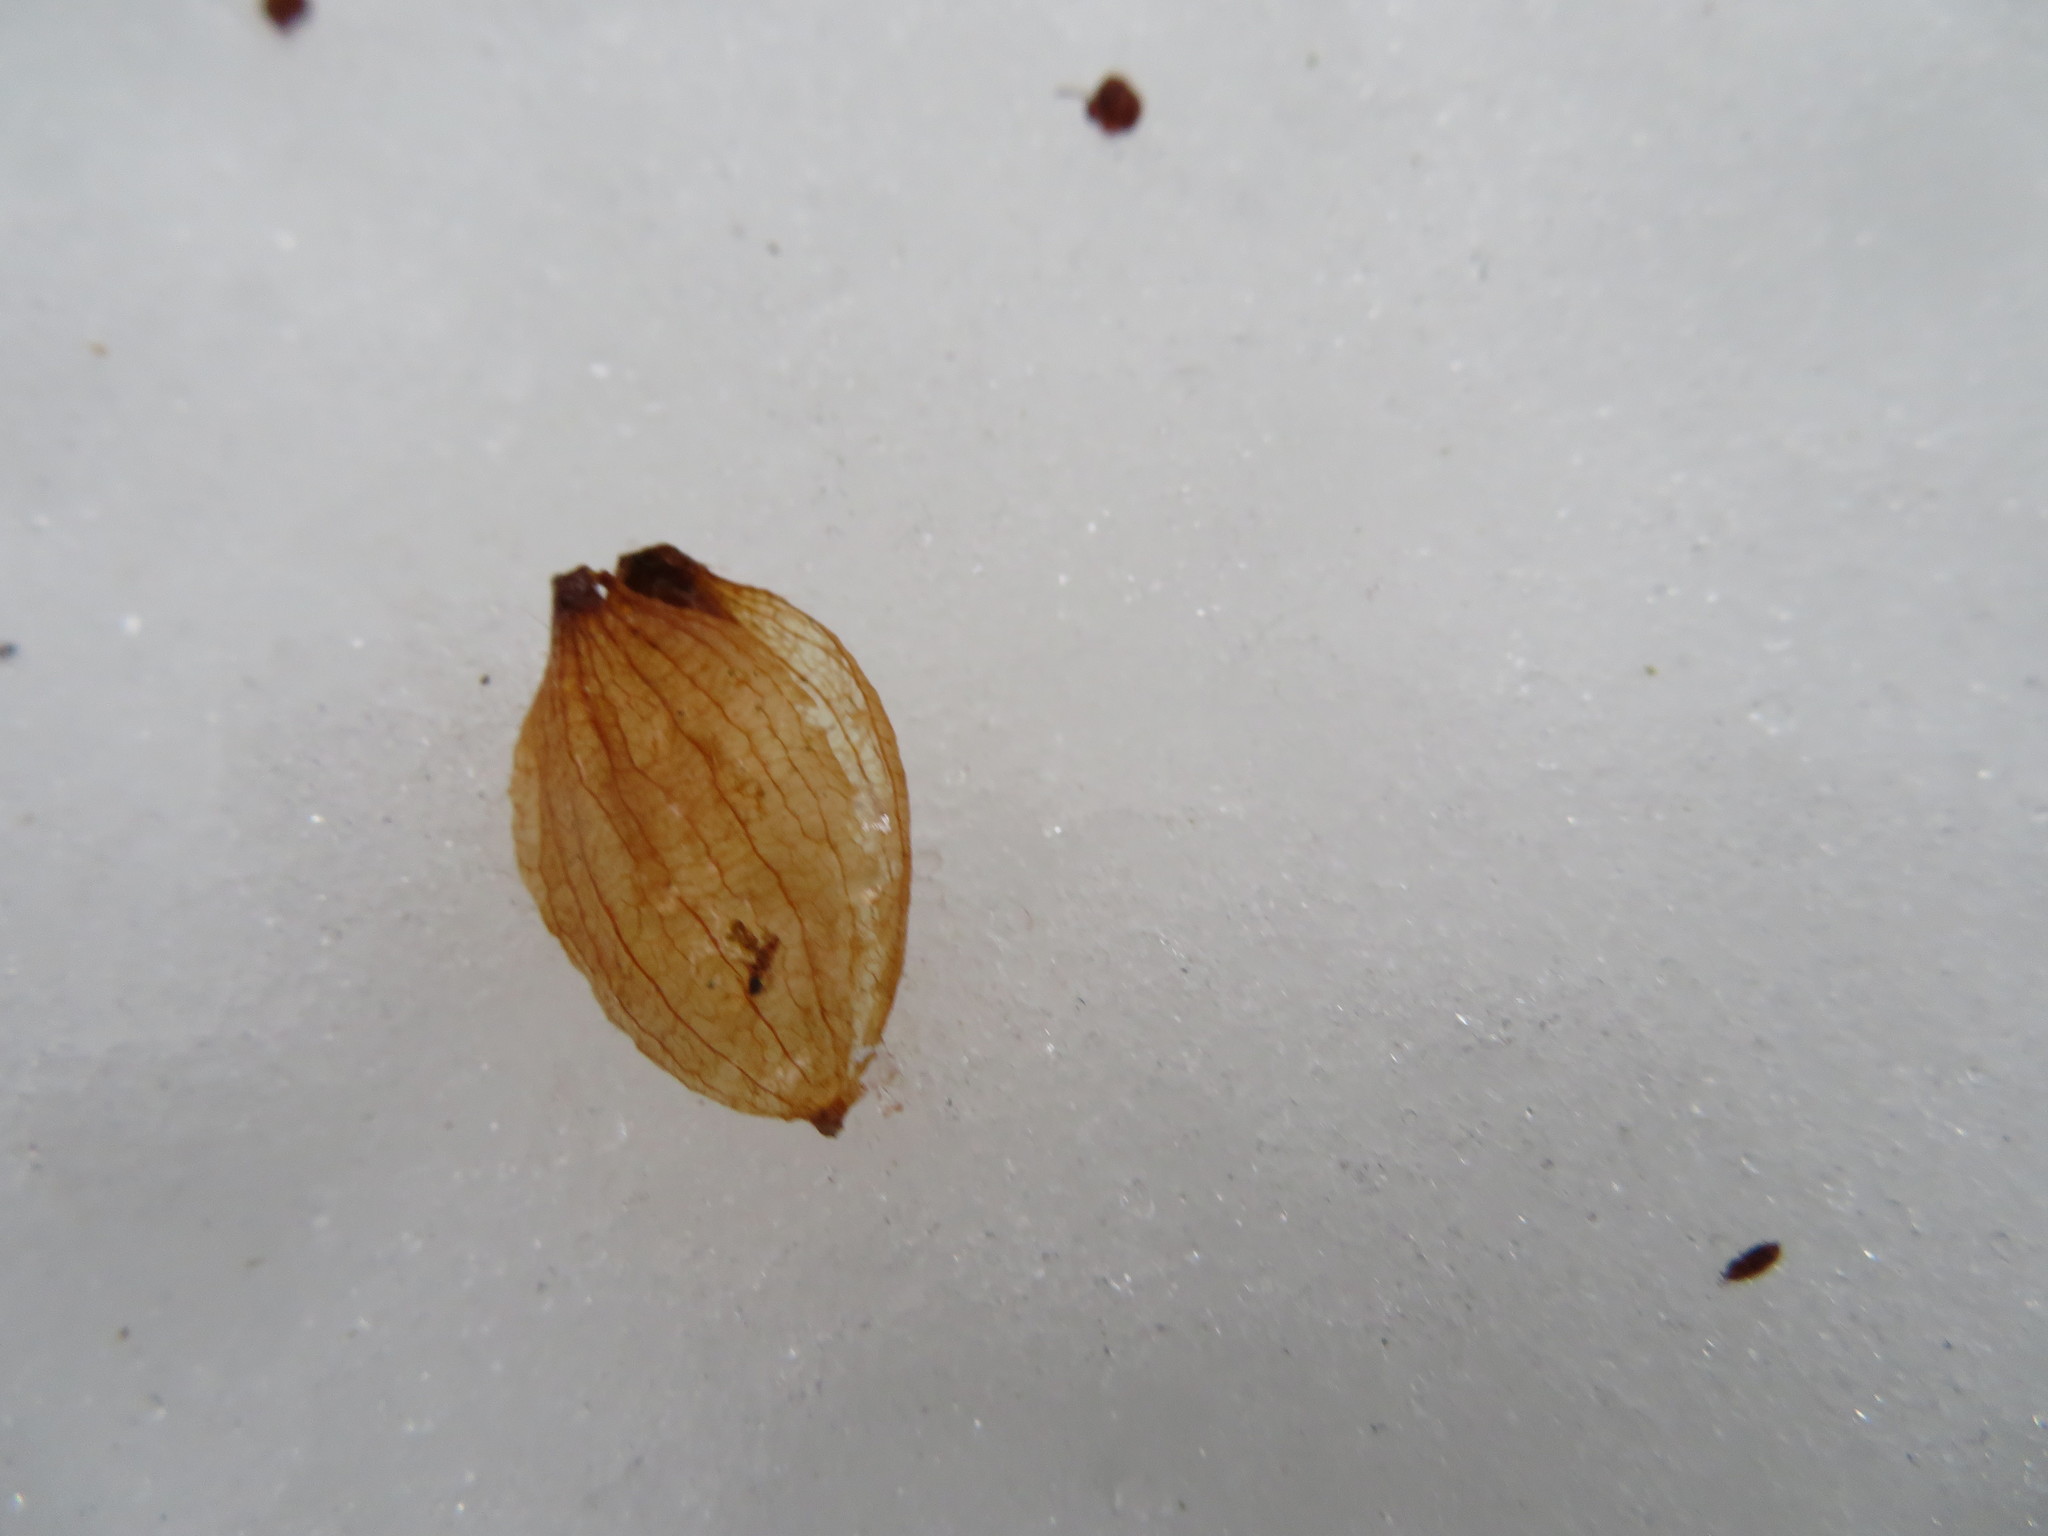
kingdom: Plantae
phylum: Tracheophyta
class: Magnoliopsida
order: Fagales
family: Betulaceae
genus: Ostrya
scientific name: Ostrya virginiana
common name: Ironwood
